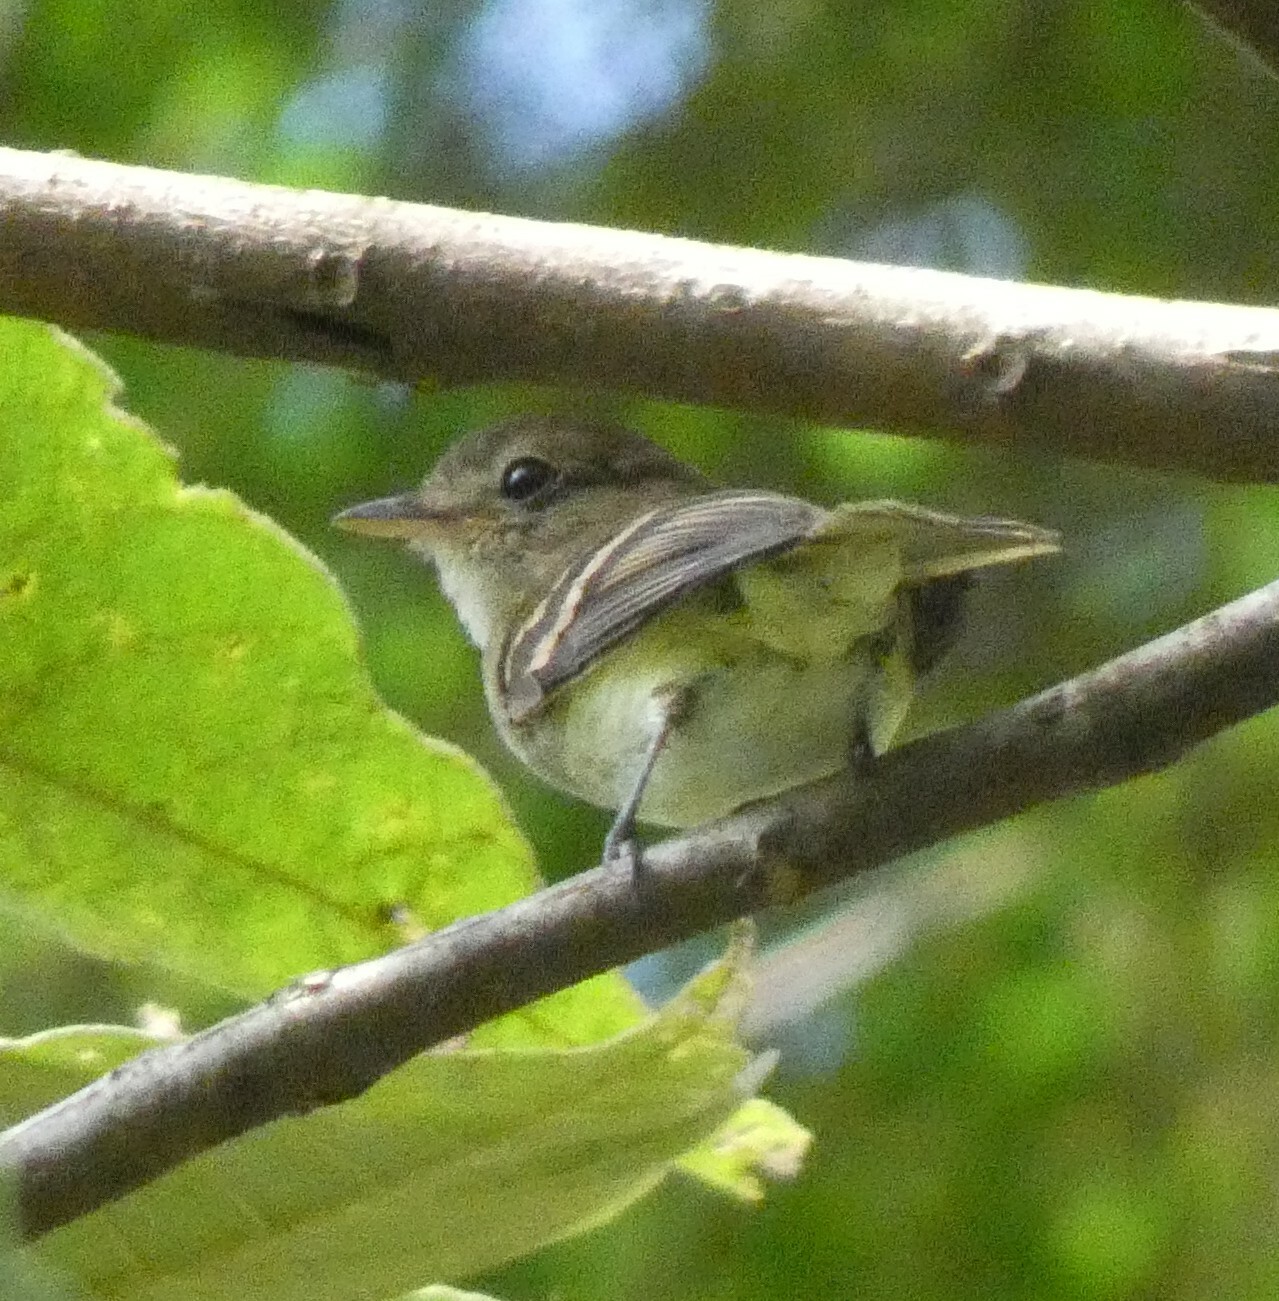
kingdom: Animalia
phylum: Chordata
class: Aves
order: Passeriformes
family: Tyrannidae
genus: Lathrotriccus
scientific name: Lathrotriccus euleri
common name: Euler's flycatcher
